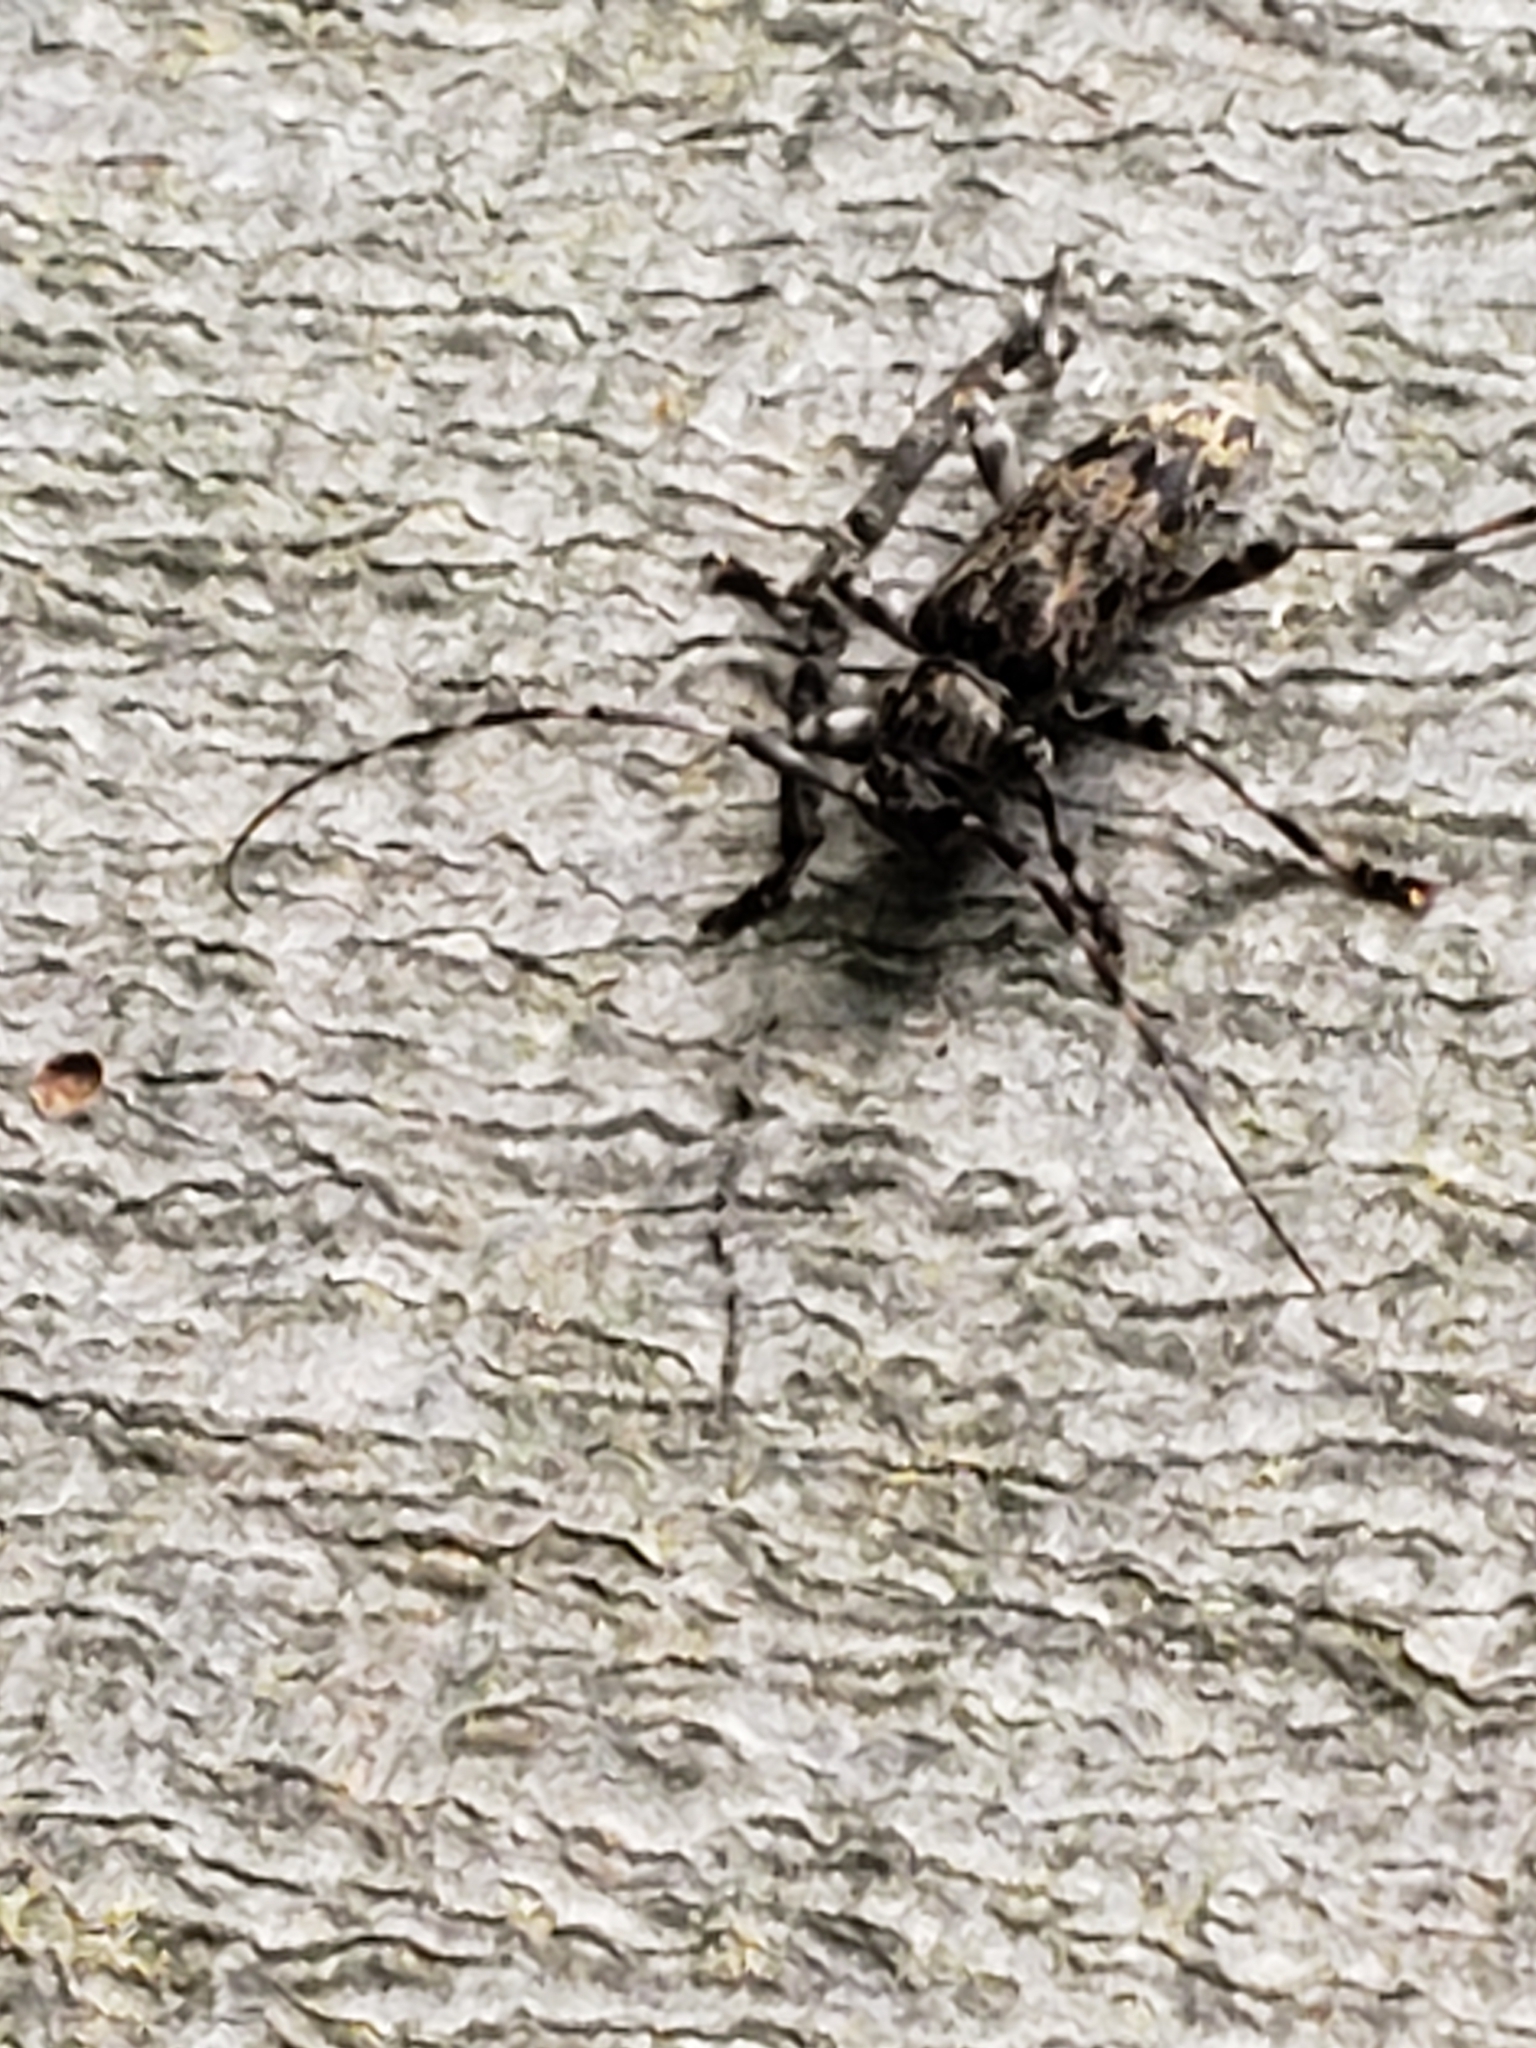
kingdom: Animalia
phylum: Arthropoda
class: Insecta
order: Coleoptera
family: Cerambycidae
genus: Graphisurus
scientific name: Graphisurus fasciatus
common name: Banded graphisurus
